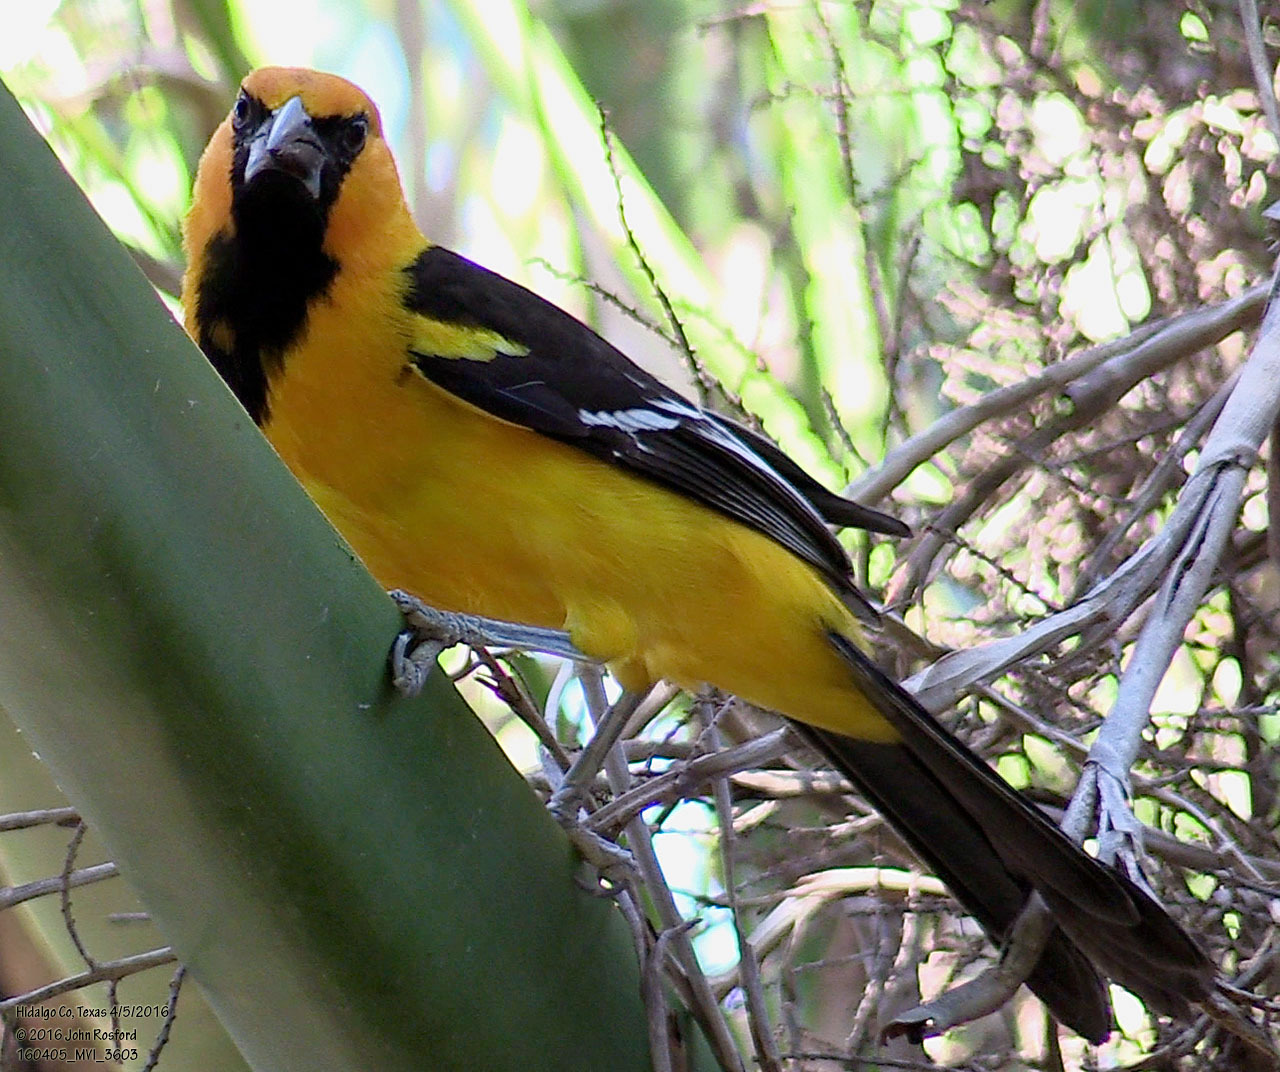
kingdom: Animalia
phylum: Chordata
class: Aves
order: Passeriformes
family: Icteridae
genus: Icterus
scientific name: Icterus gularis
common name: Altamira oriole
